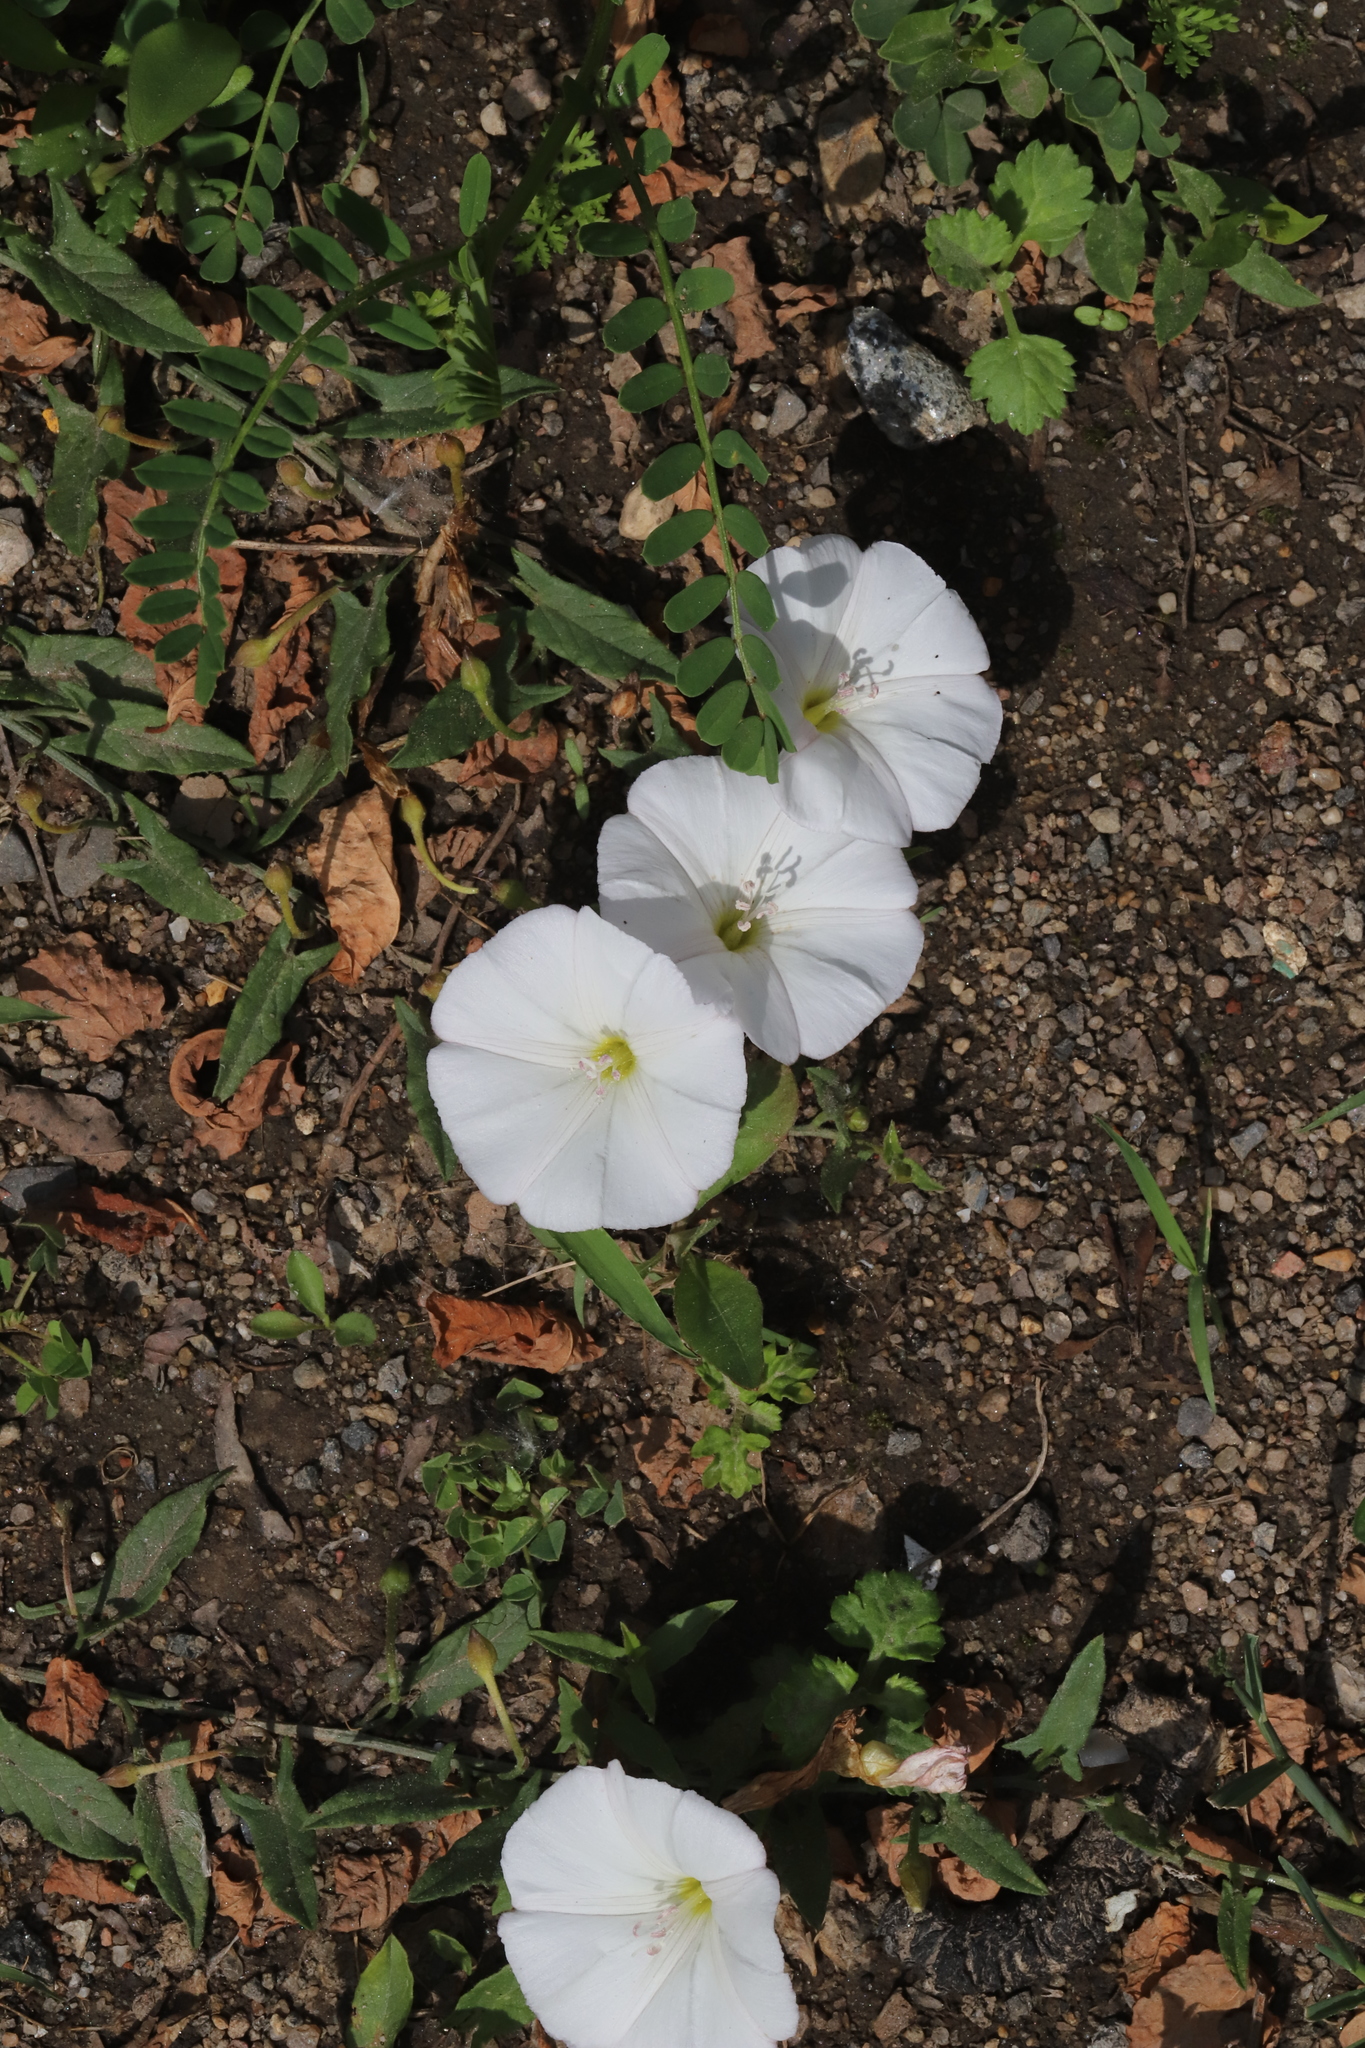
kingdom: Plantae
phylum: Tracheophyta
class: Magnoliopsida
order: Solanales
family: Convolvulaceae
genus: Convolvulus
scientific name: Convolvulus arvensis
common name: Field bindweed
